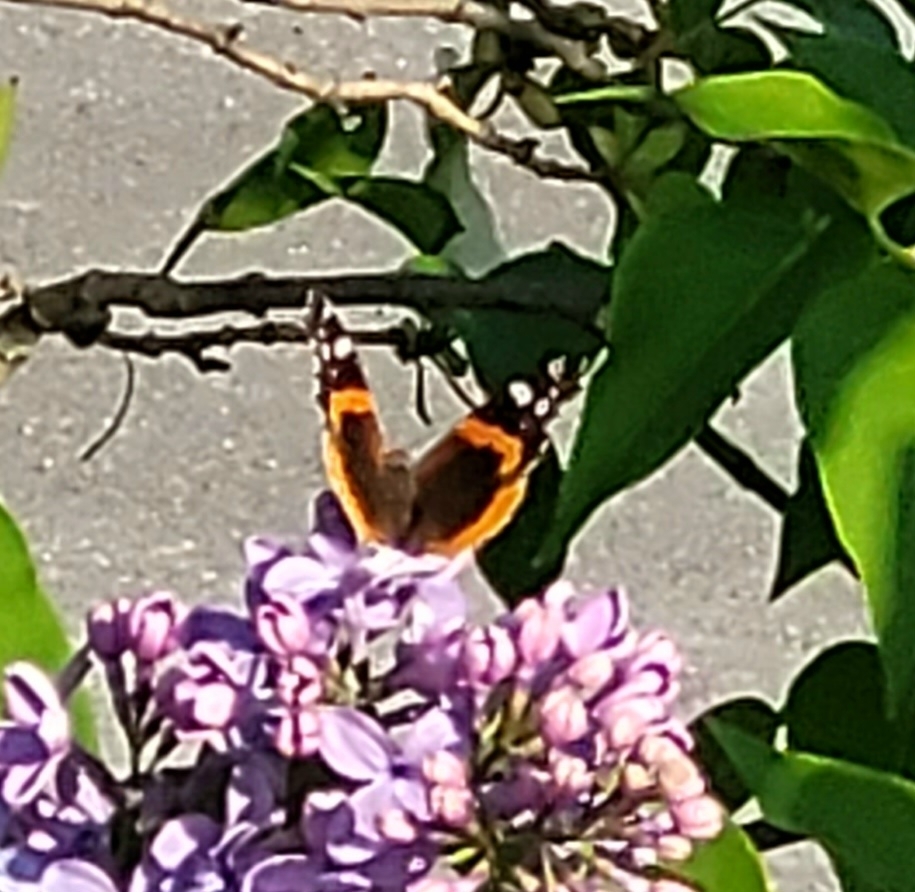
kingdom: Animalia
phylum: Arthropoda
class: Insecta
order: Lepidoptera
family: Nymphalidae
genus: Vanessa
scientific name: Vanessa atalanta
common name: Red admiral
